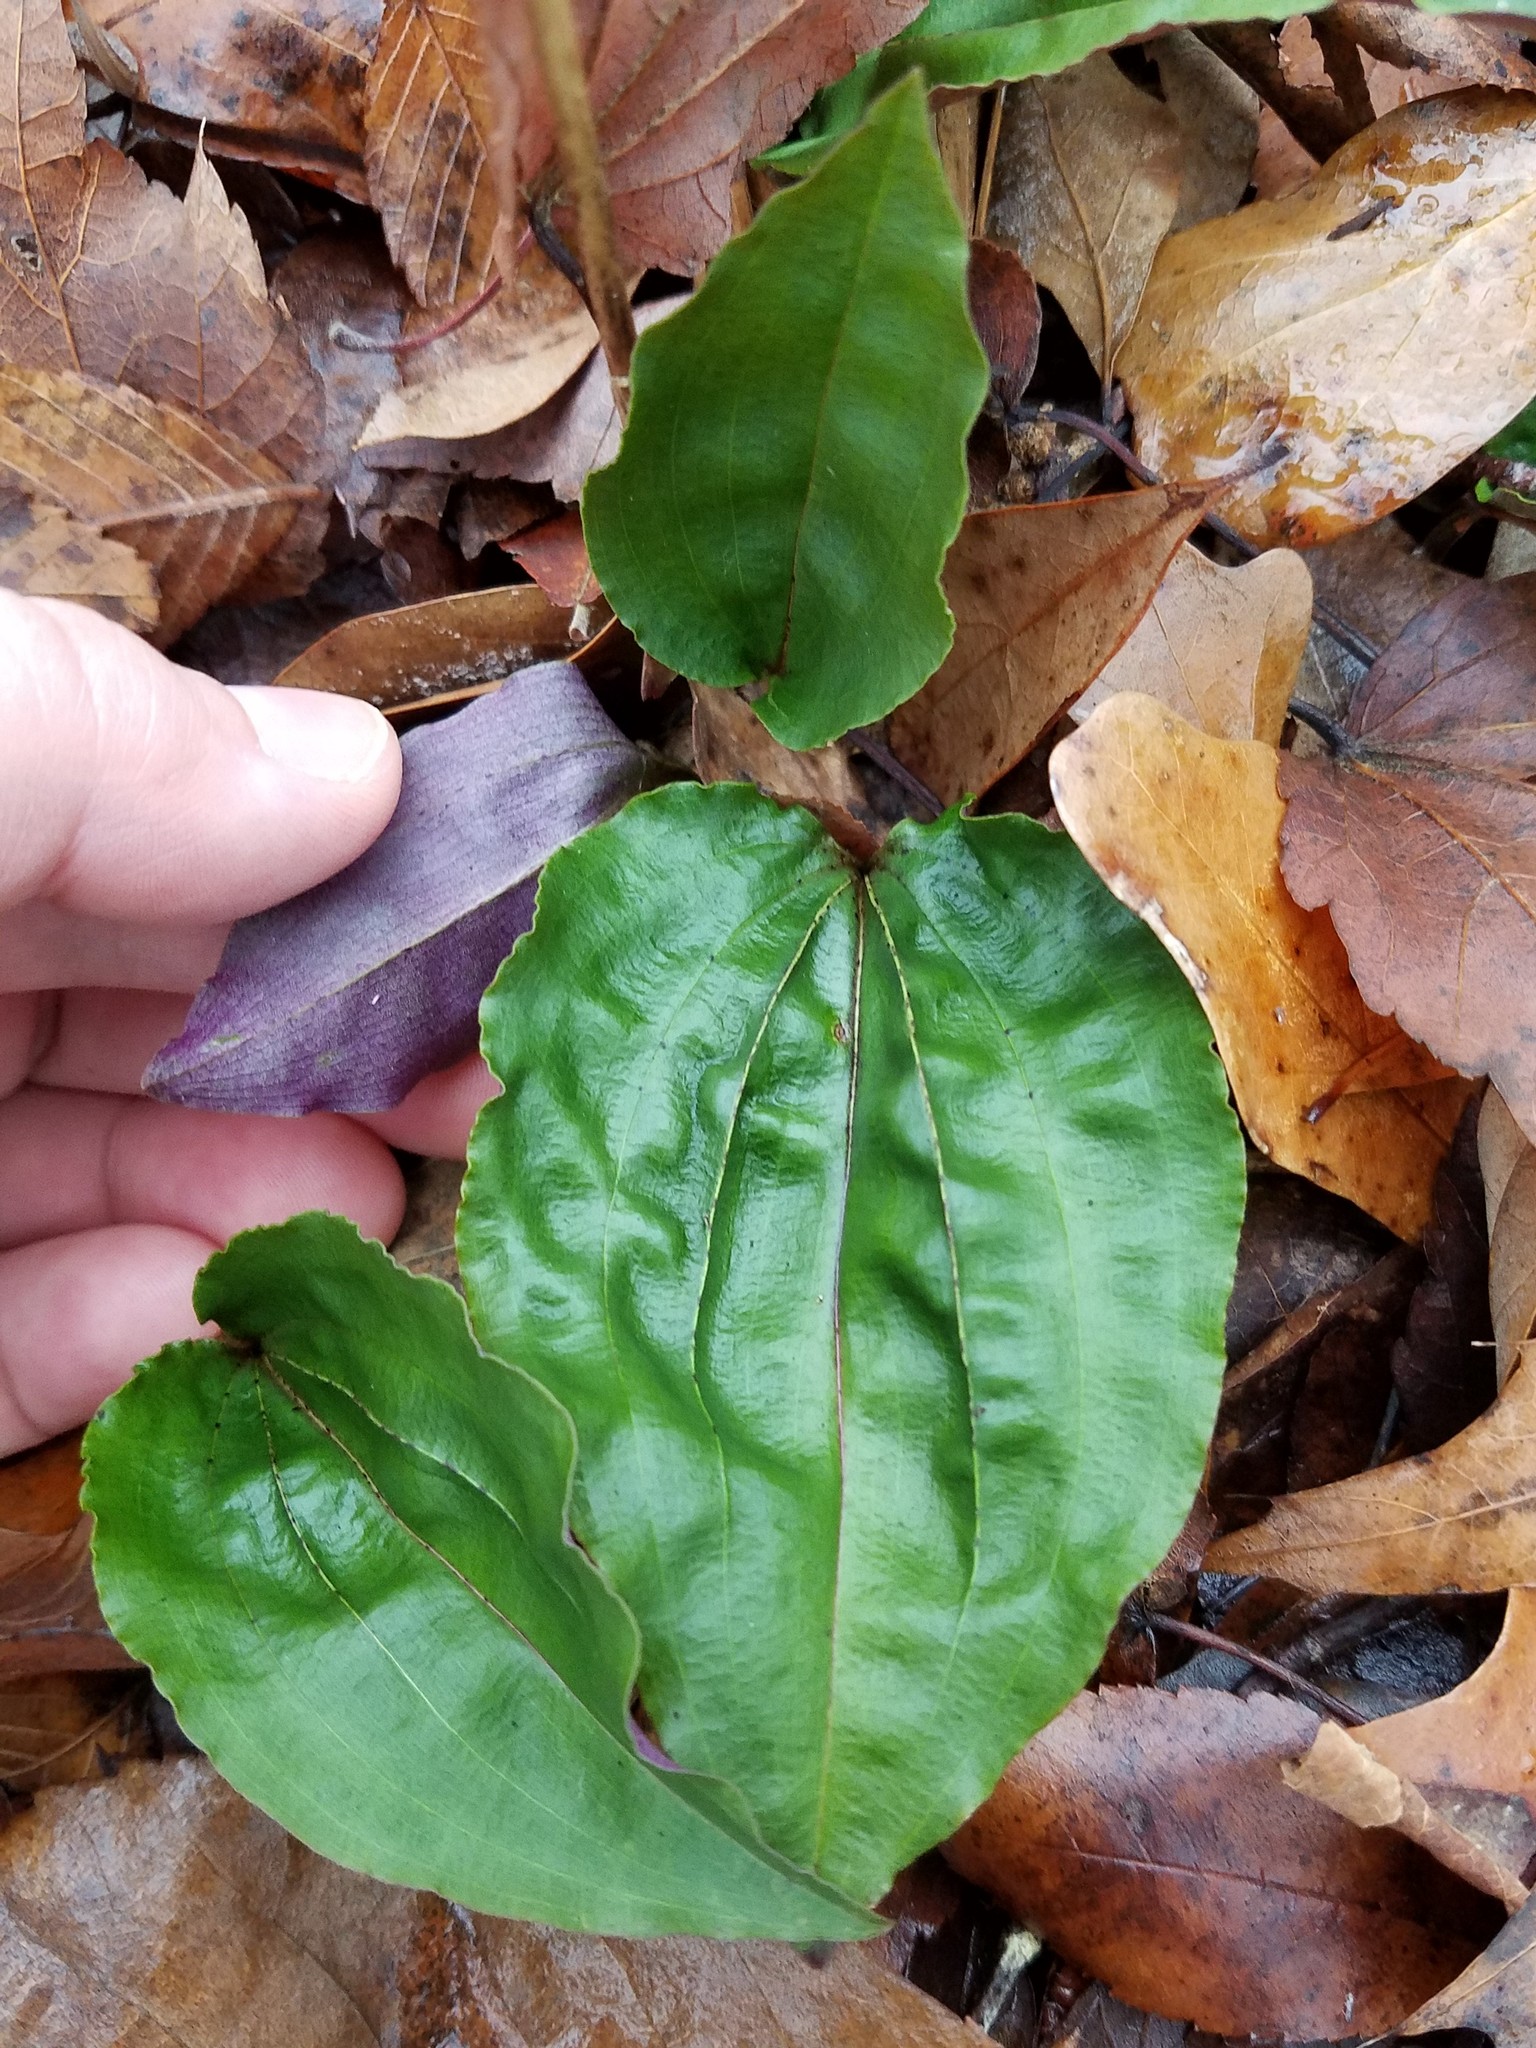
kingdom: Plantae
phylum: Tracheophyta
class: Liliopsida
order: Asparagales
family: Orchidaceae
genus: Tipularia
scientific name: Tipularia discolor
